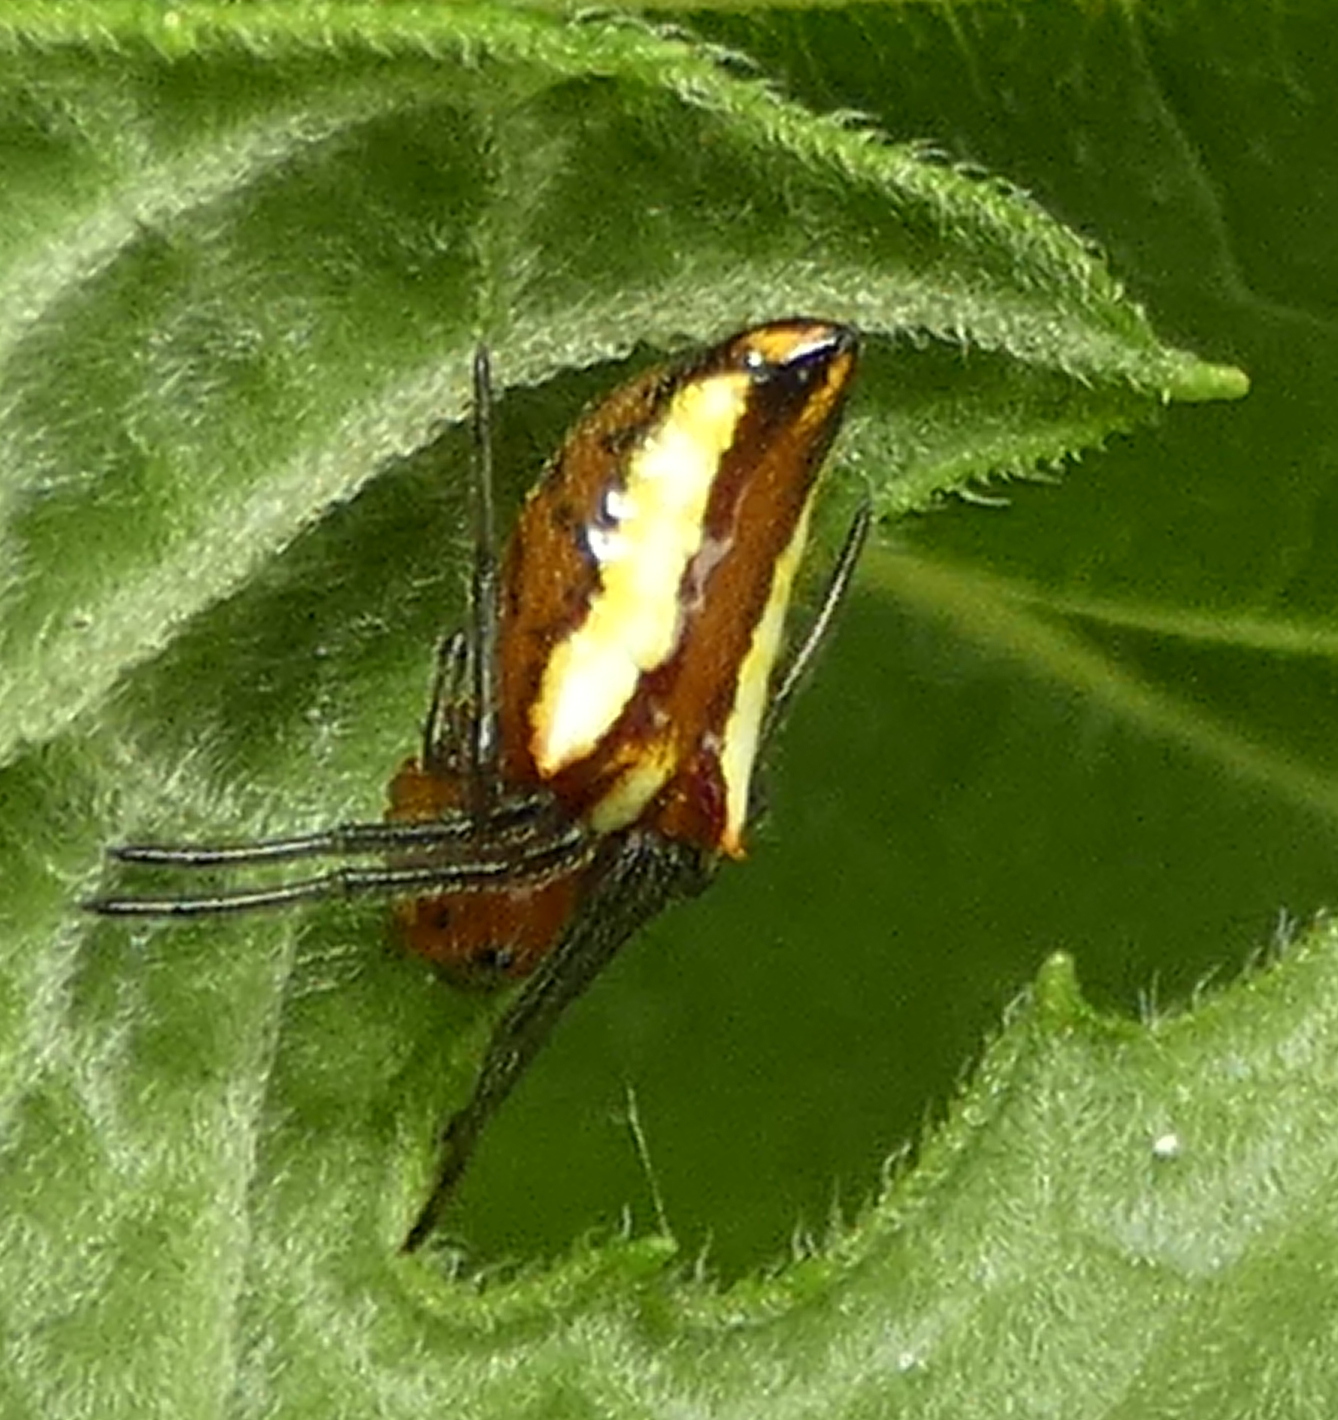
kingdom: Animalia
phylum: Arthropoda
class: Arachnida
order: Araneae
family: Araneidae
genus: Alpaida
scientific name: Alpaida bicornuta
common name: Orb weavers
